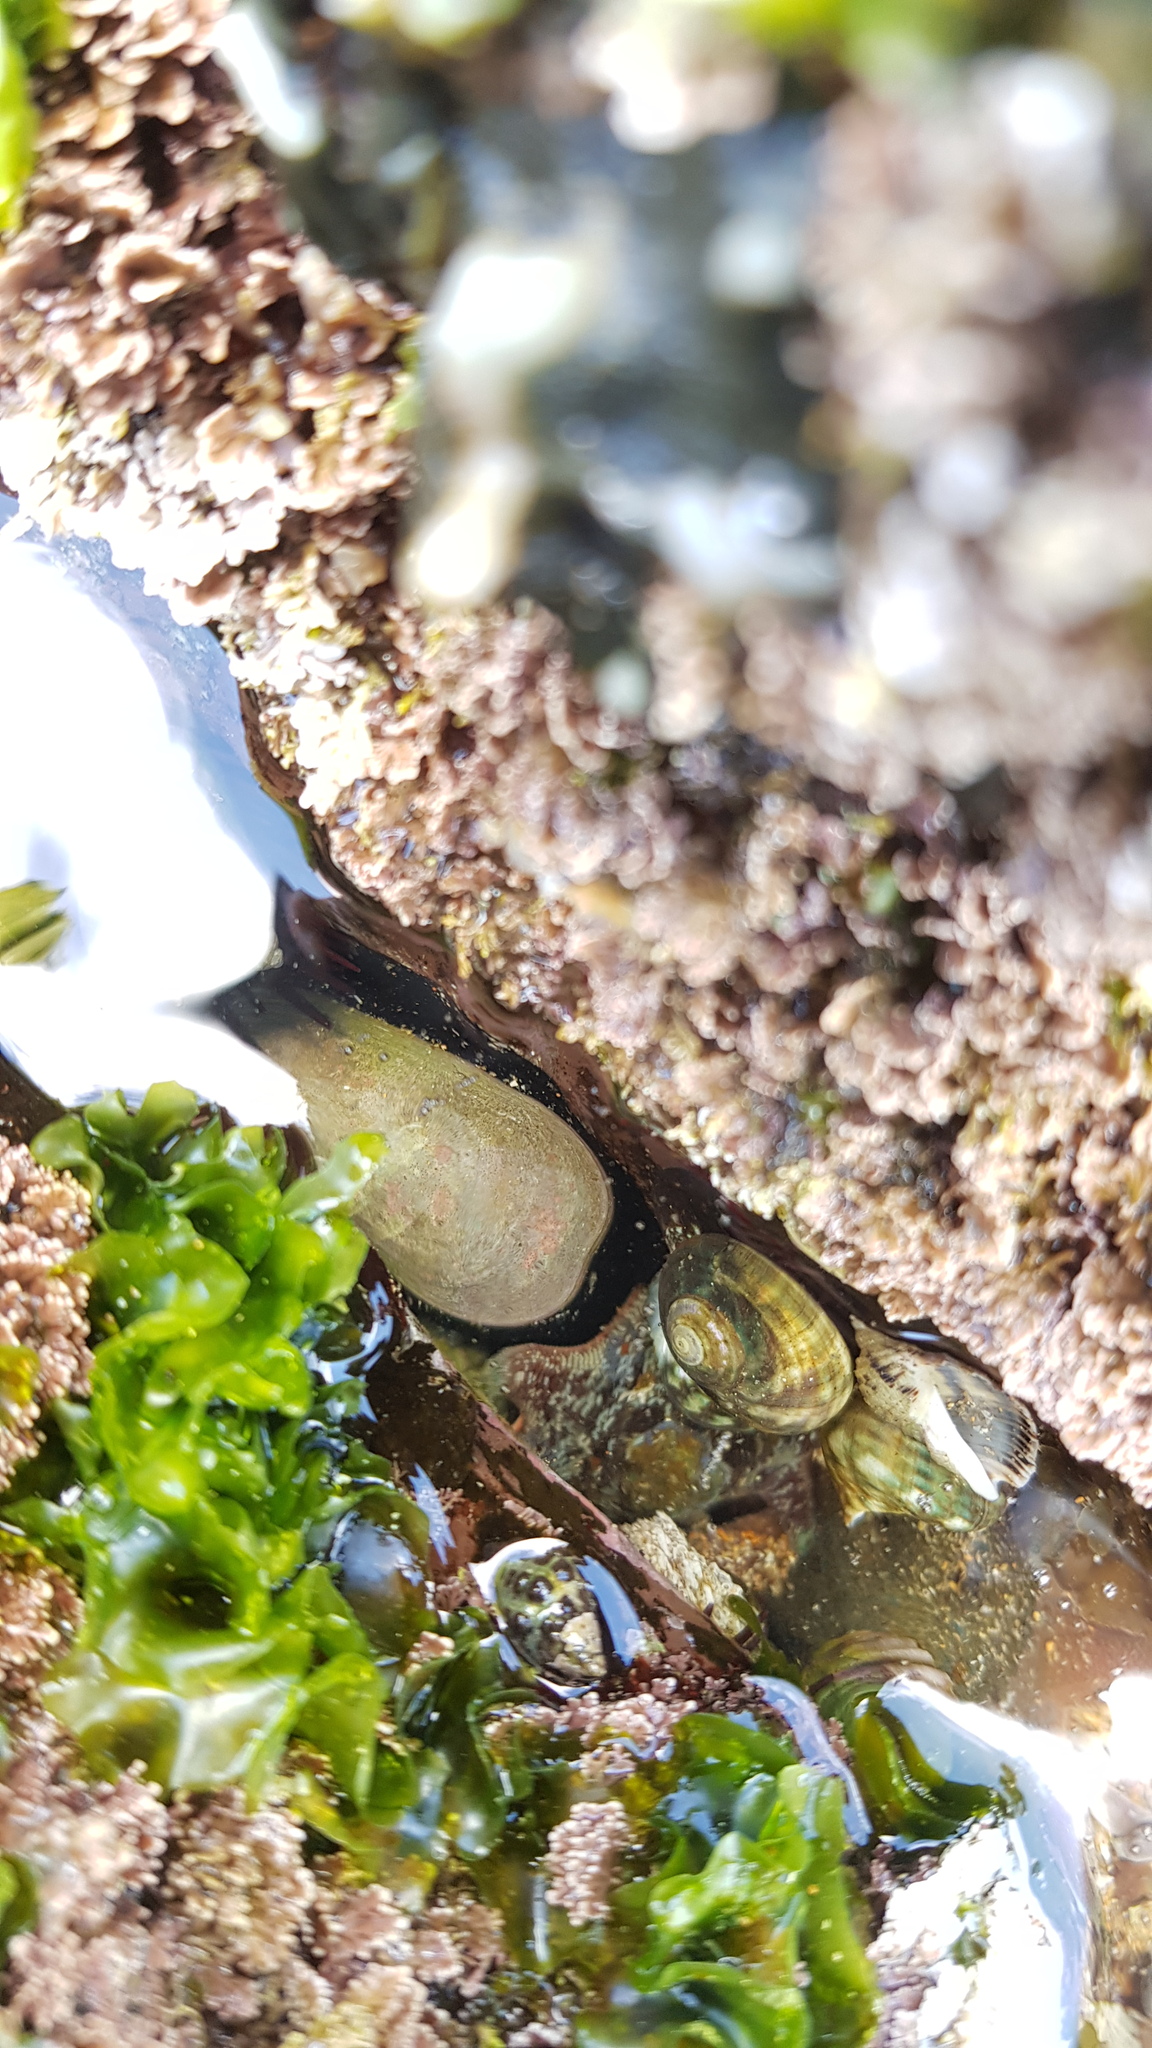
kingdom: Animalia
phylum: Mollusca
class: Gastropoda
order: Lepetellida
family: Fissurellidae
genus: Scutus
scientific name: Scutus antipodes
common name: Duckbill shell
